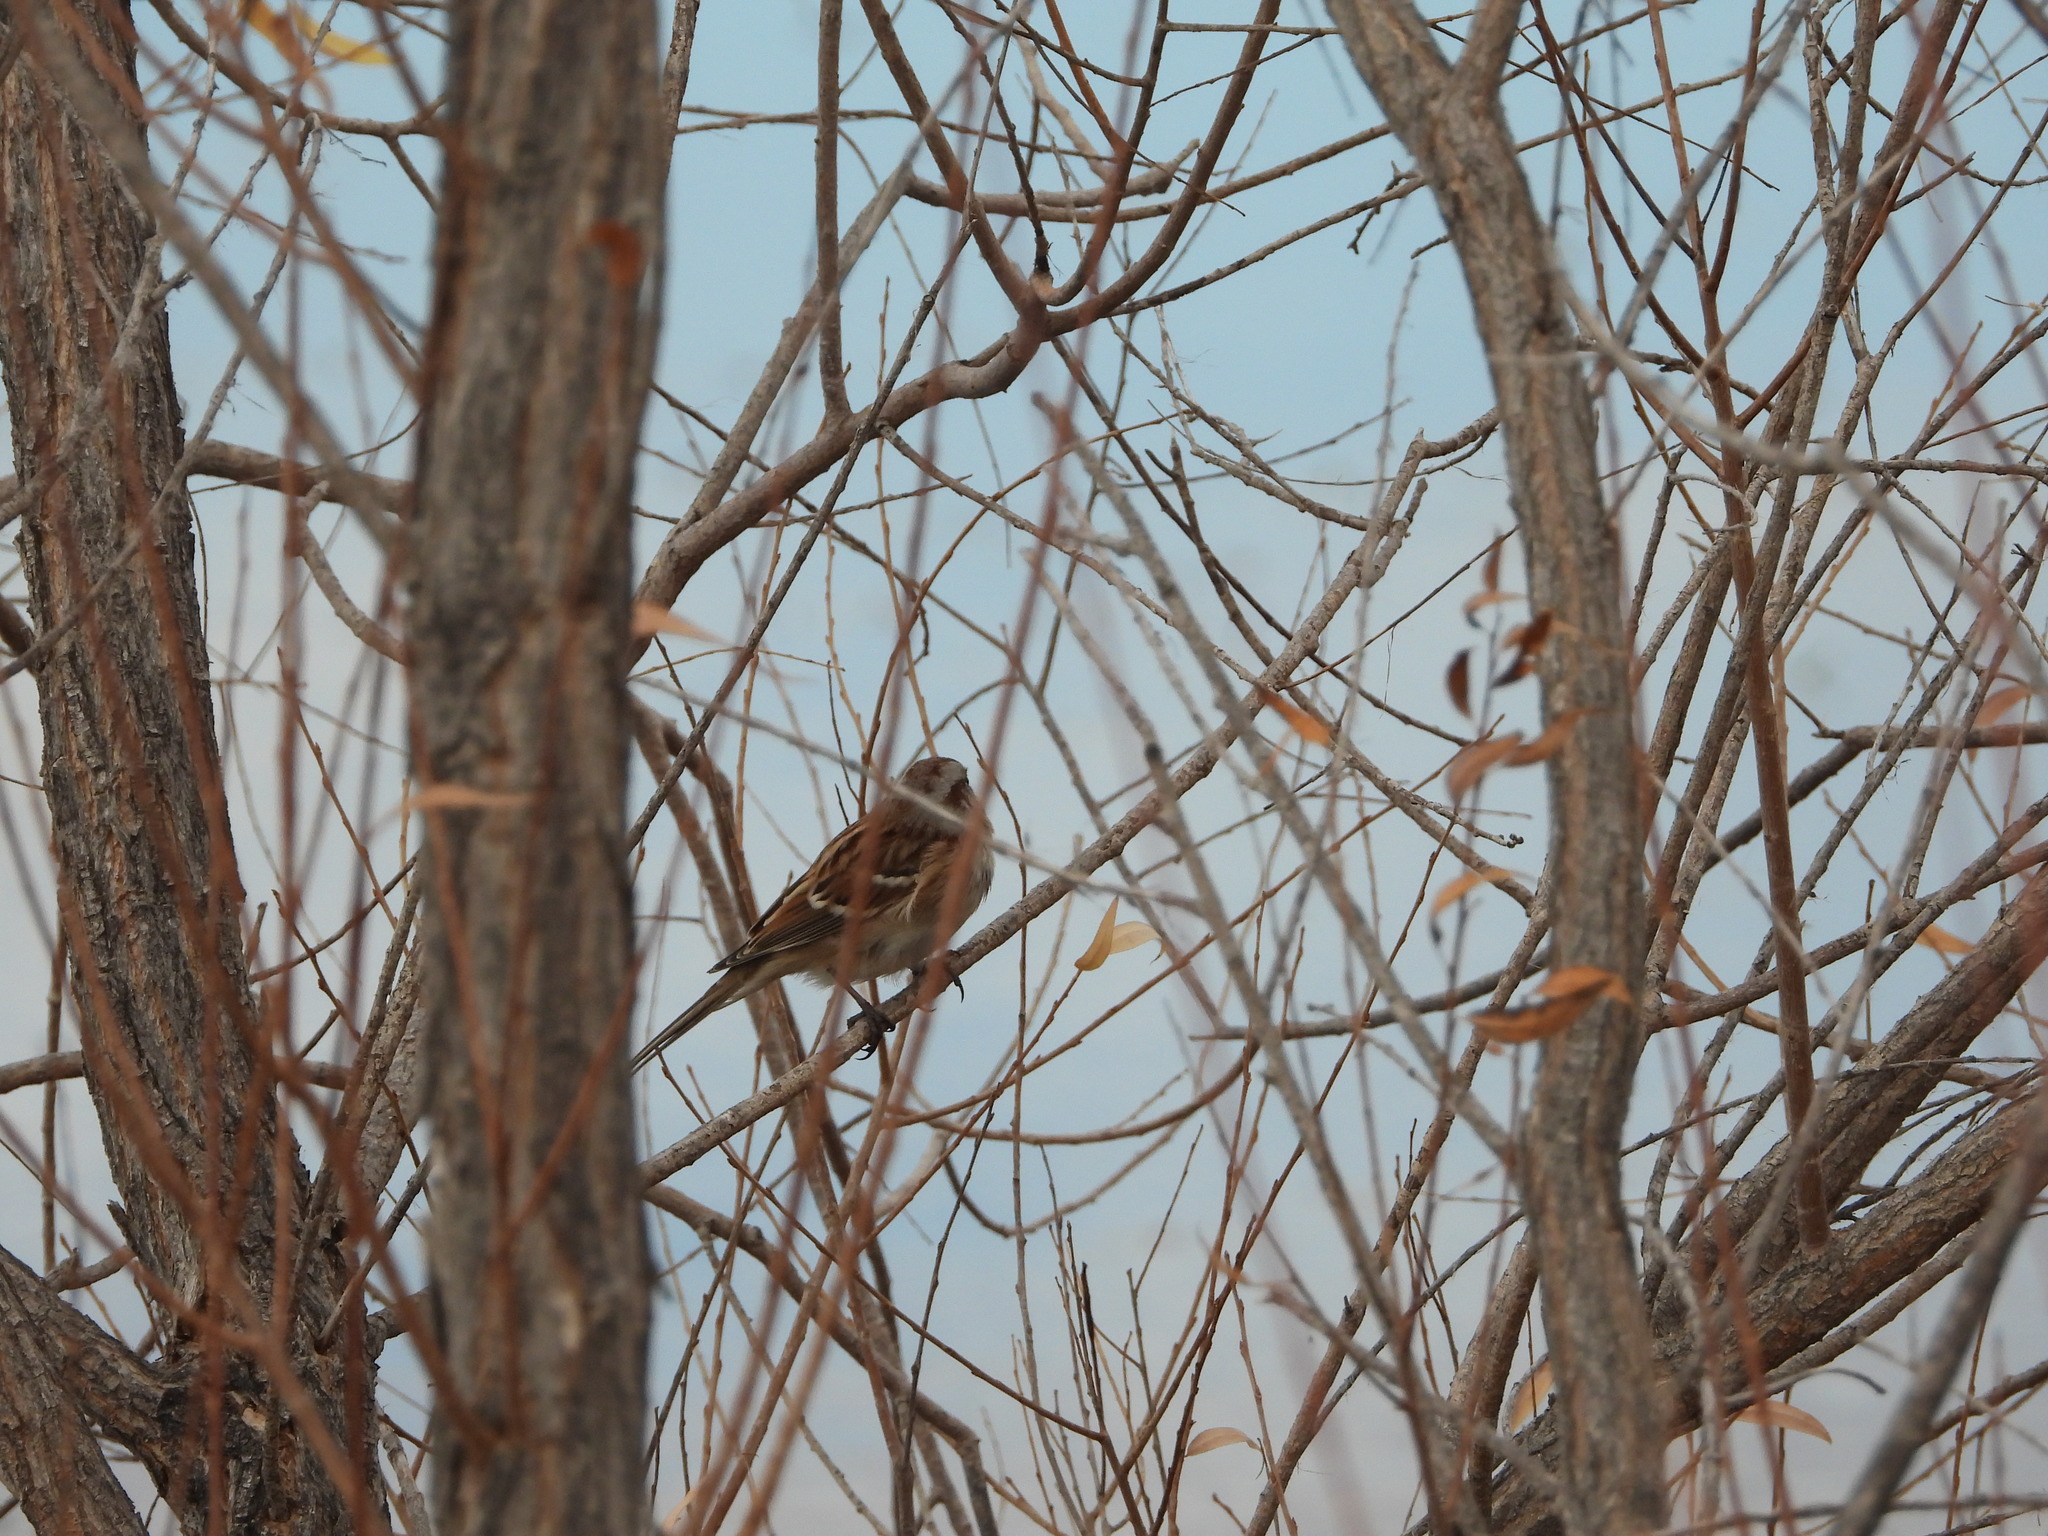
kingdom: Animalia
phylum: Chordata
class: Aves
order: Passeriformes
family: Passerellidae
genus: Spizelloides
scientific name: Spizelloides arborea
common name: American tree sparrow
